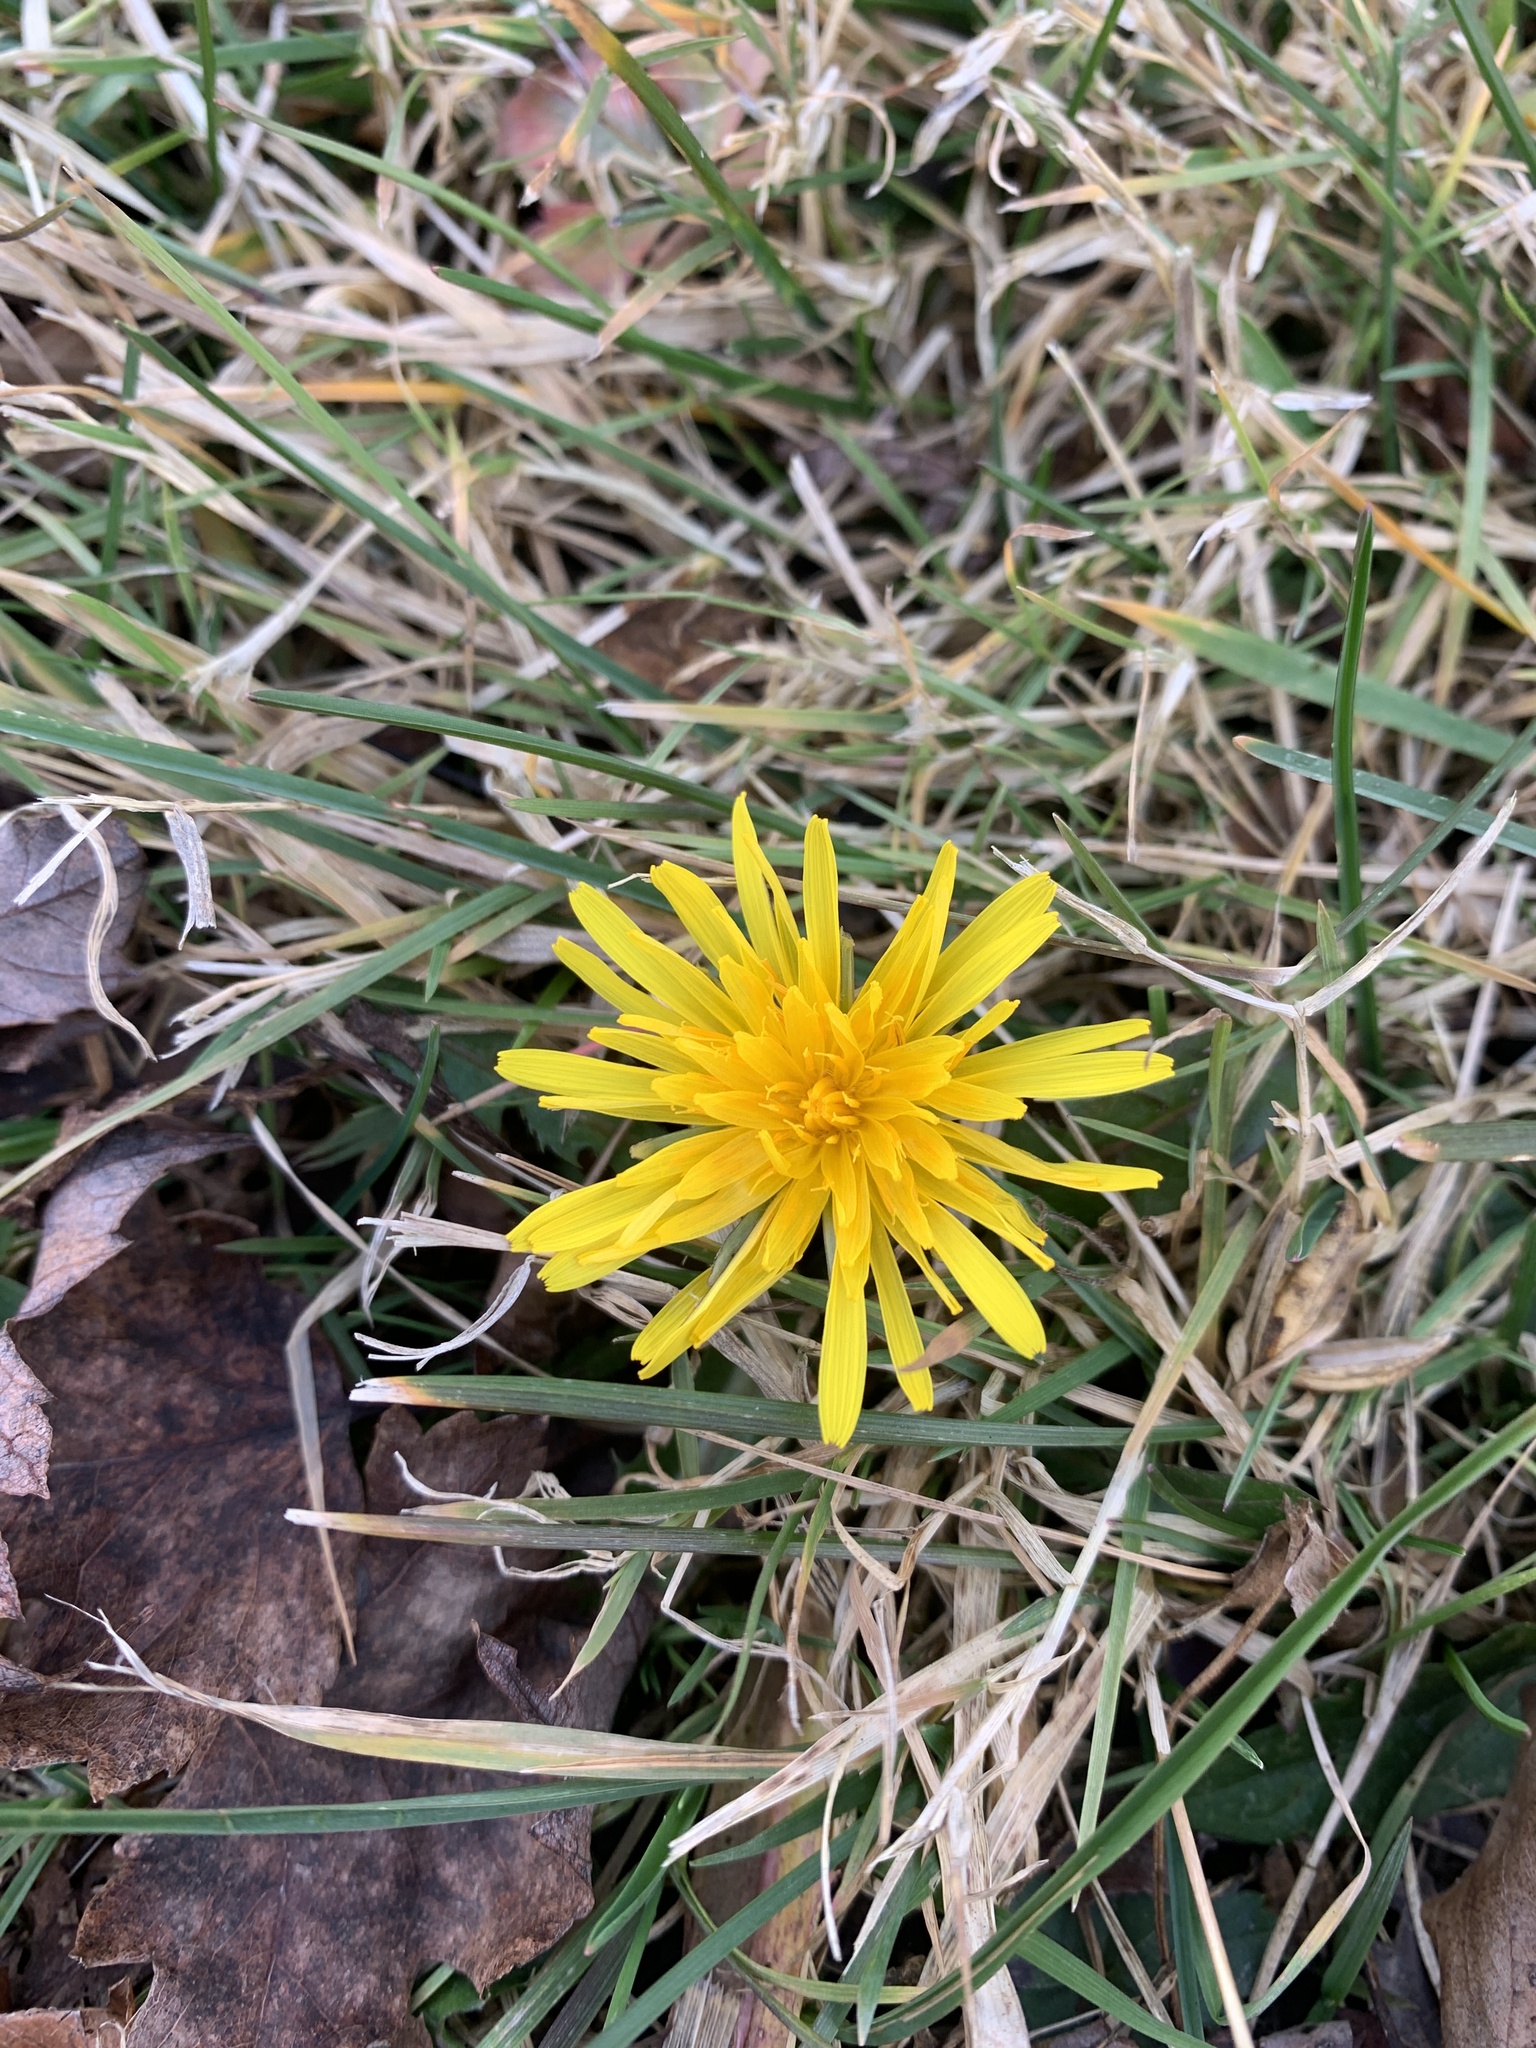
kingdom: Plantae
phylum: Tracheophyta
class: Magnoliopsida
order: Asterales
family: Asteraceae
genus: Taraxacum
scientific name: Taraxacum officinale
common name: Common dandelion
